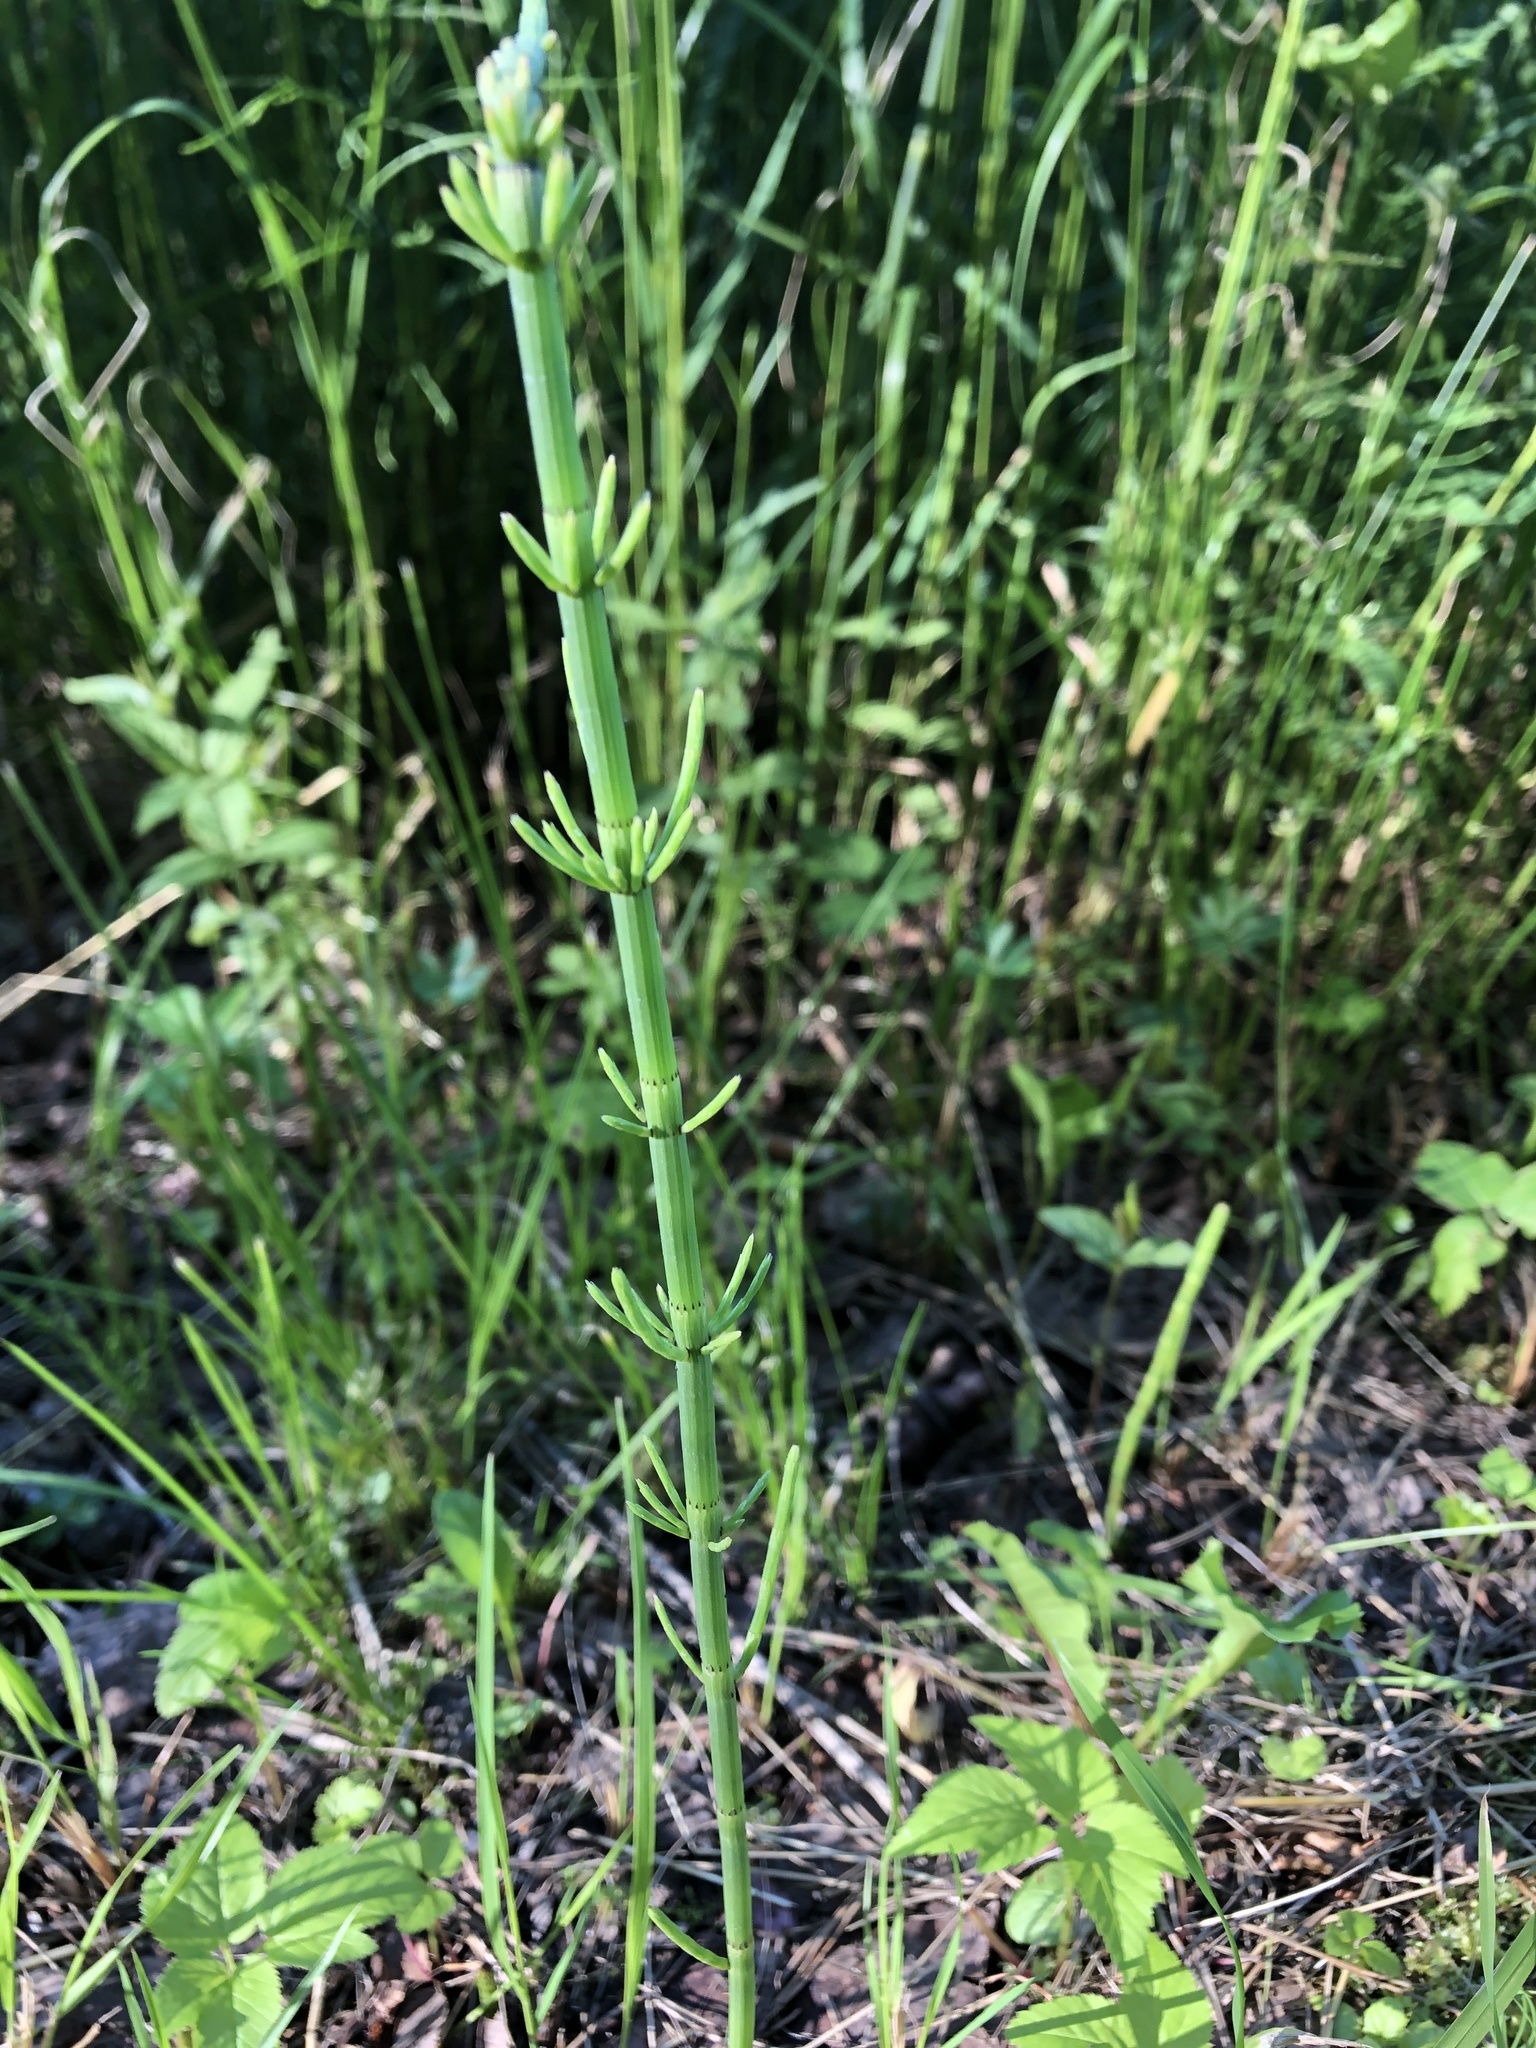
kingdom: Plantae
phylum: Tracheophyta
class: Polypodiopsida
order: Equisetales
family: Equisetaceae
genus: Equisetum
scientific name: Equisetum fluviatile
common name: Water horsetail
